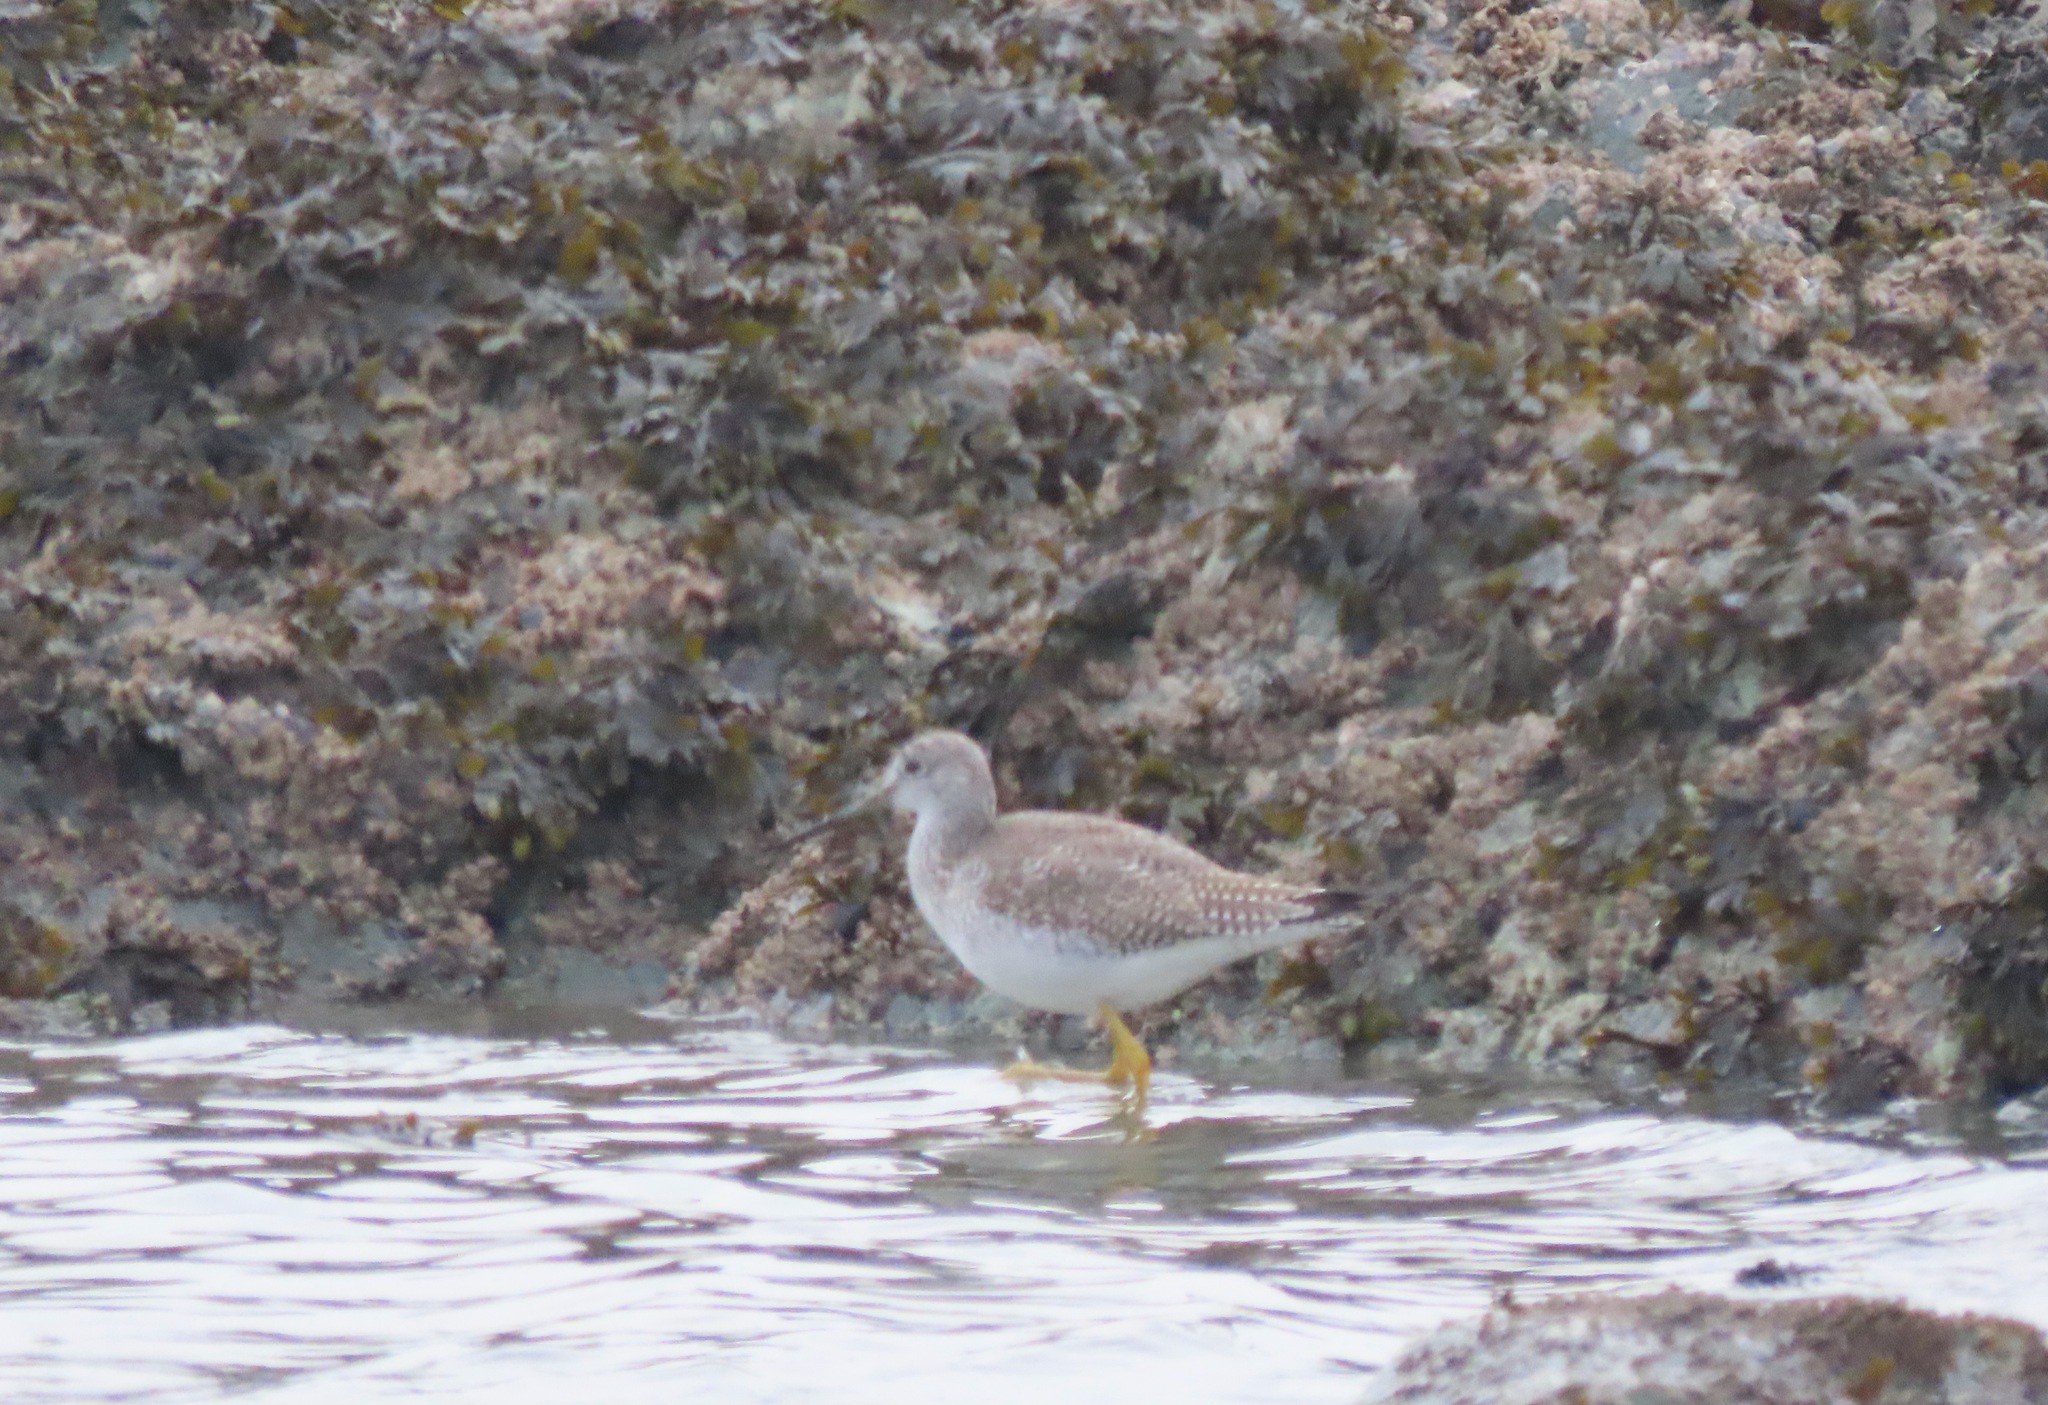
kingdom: Animalia
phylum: Chordata
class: Aves
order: Charadriiformes
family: Scolopacidae
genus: Tringa
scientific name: Tringa melanoleuca
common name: Greater yellowlegs
